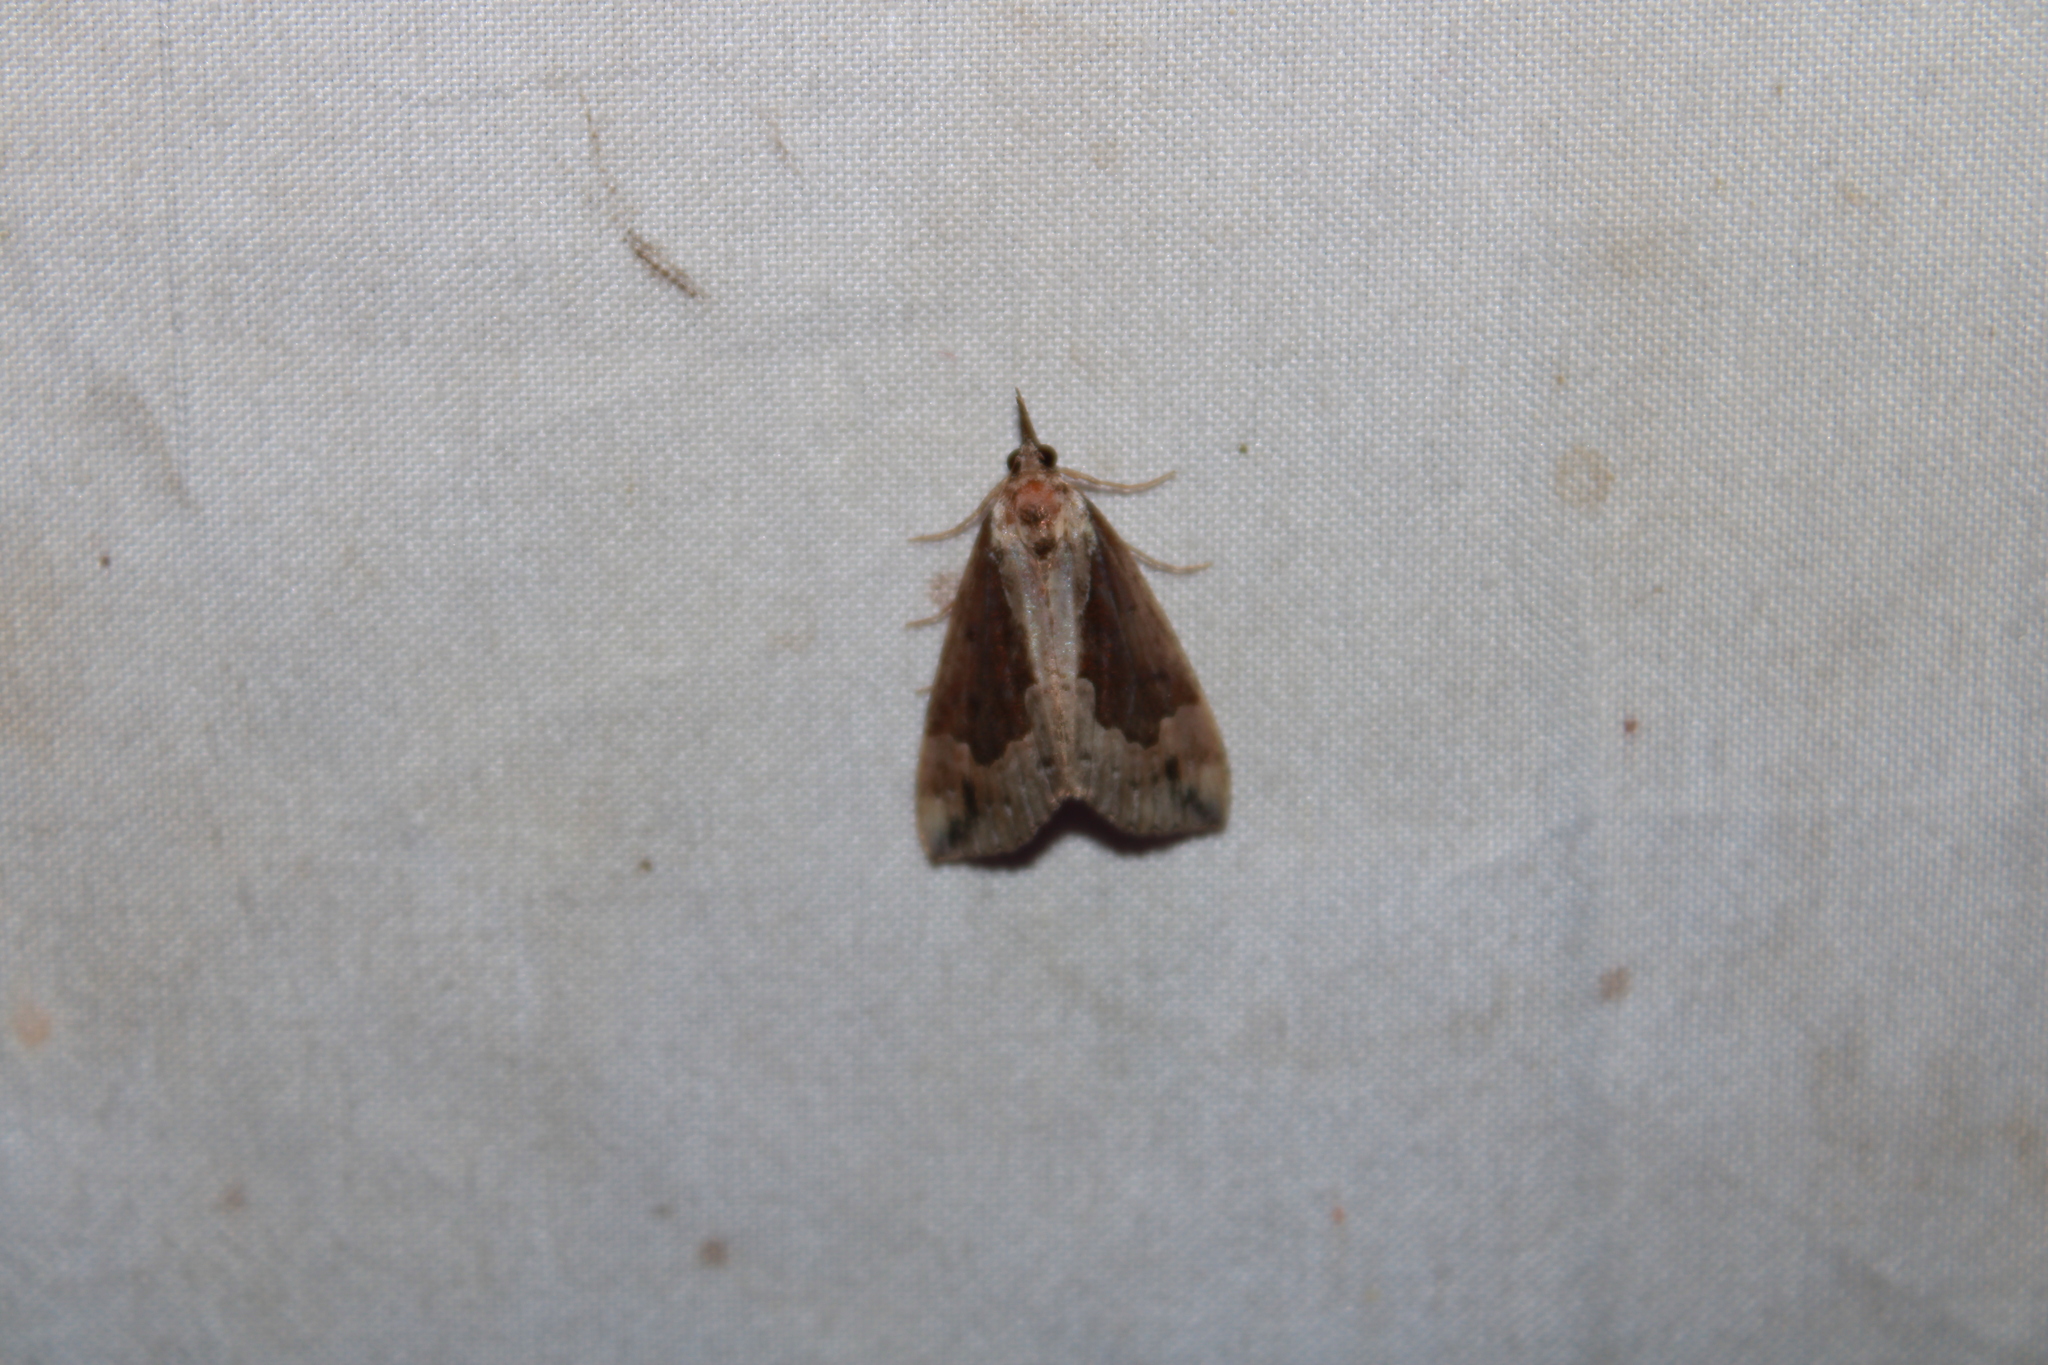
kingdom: Animalia
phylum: Arthropoda
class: Insecta
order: Lepidoptera
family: Erebidae
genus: Hypena
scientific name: Hypena scabra
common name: Green cloverworm
